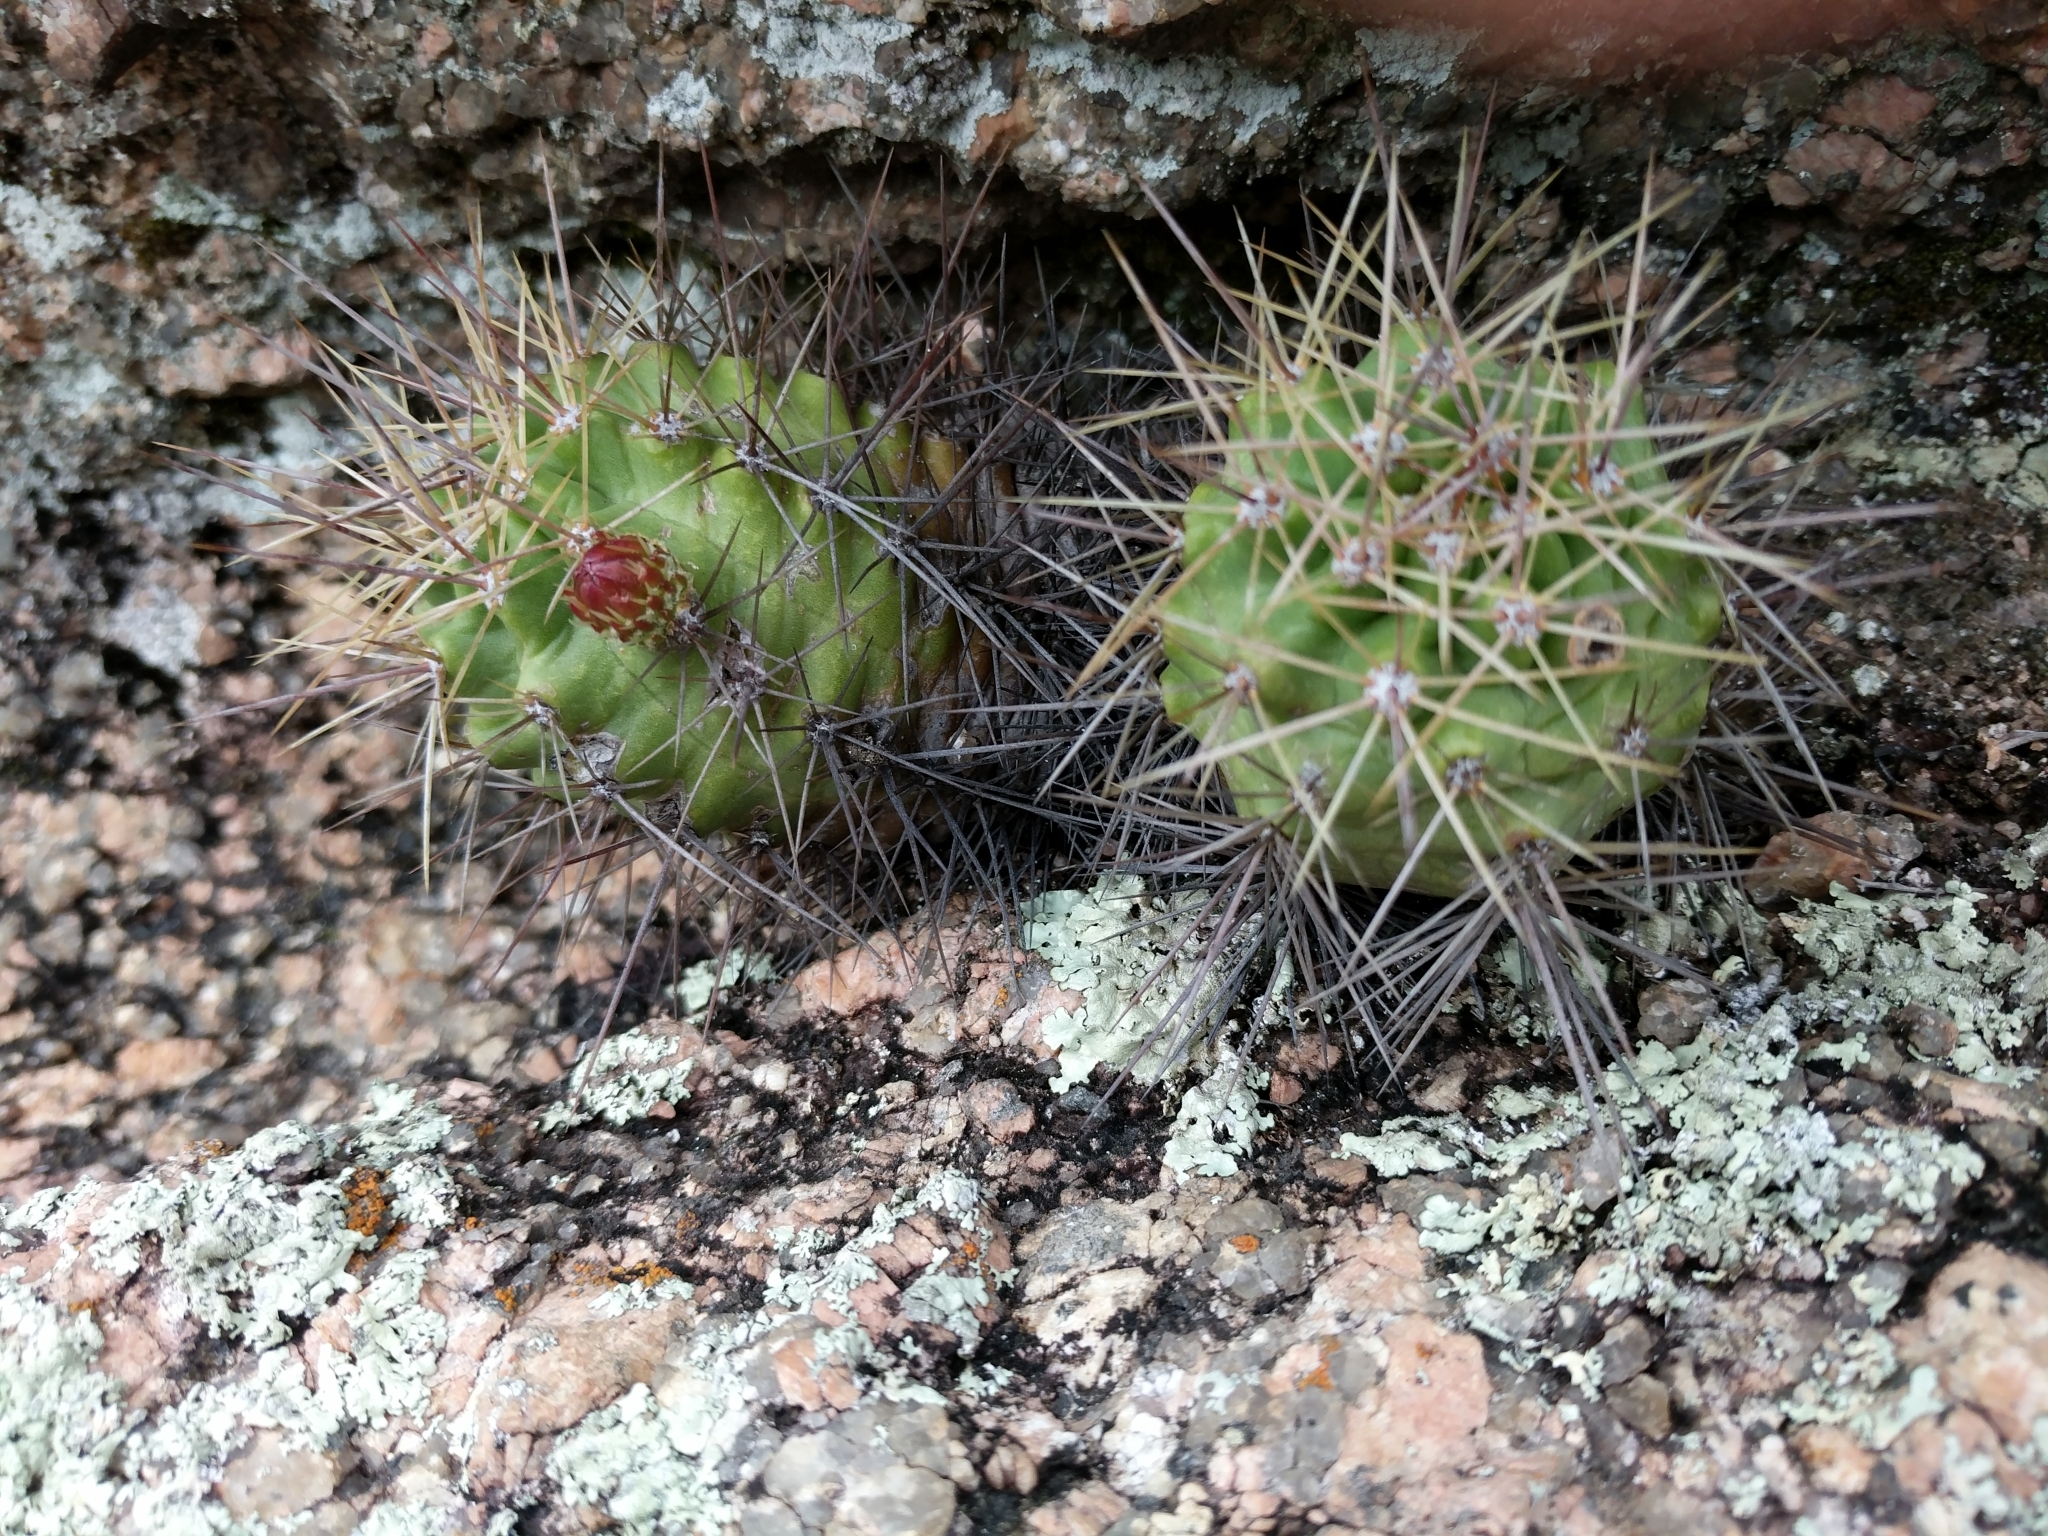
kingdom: Plantae
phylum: Tracheophyta
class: Magnoliopsida
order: Caryophyllales
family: Cactaceae
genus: Echinocereus
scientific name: Echinocereus coccineus
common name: Scarlet hedgehog cactus
